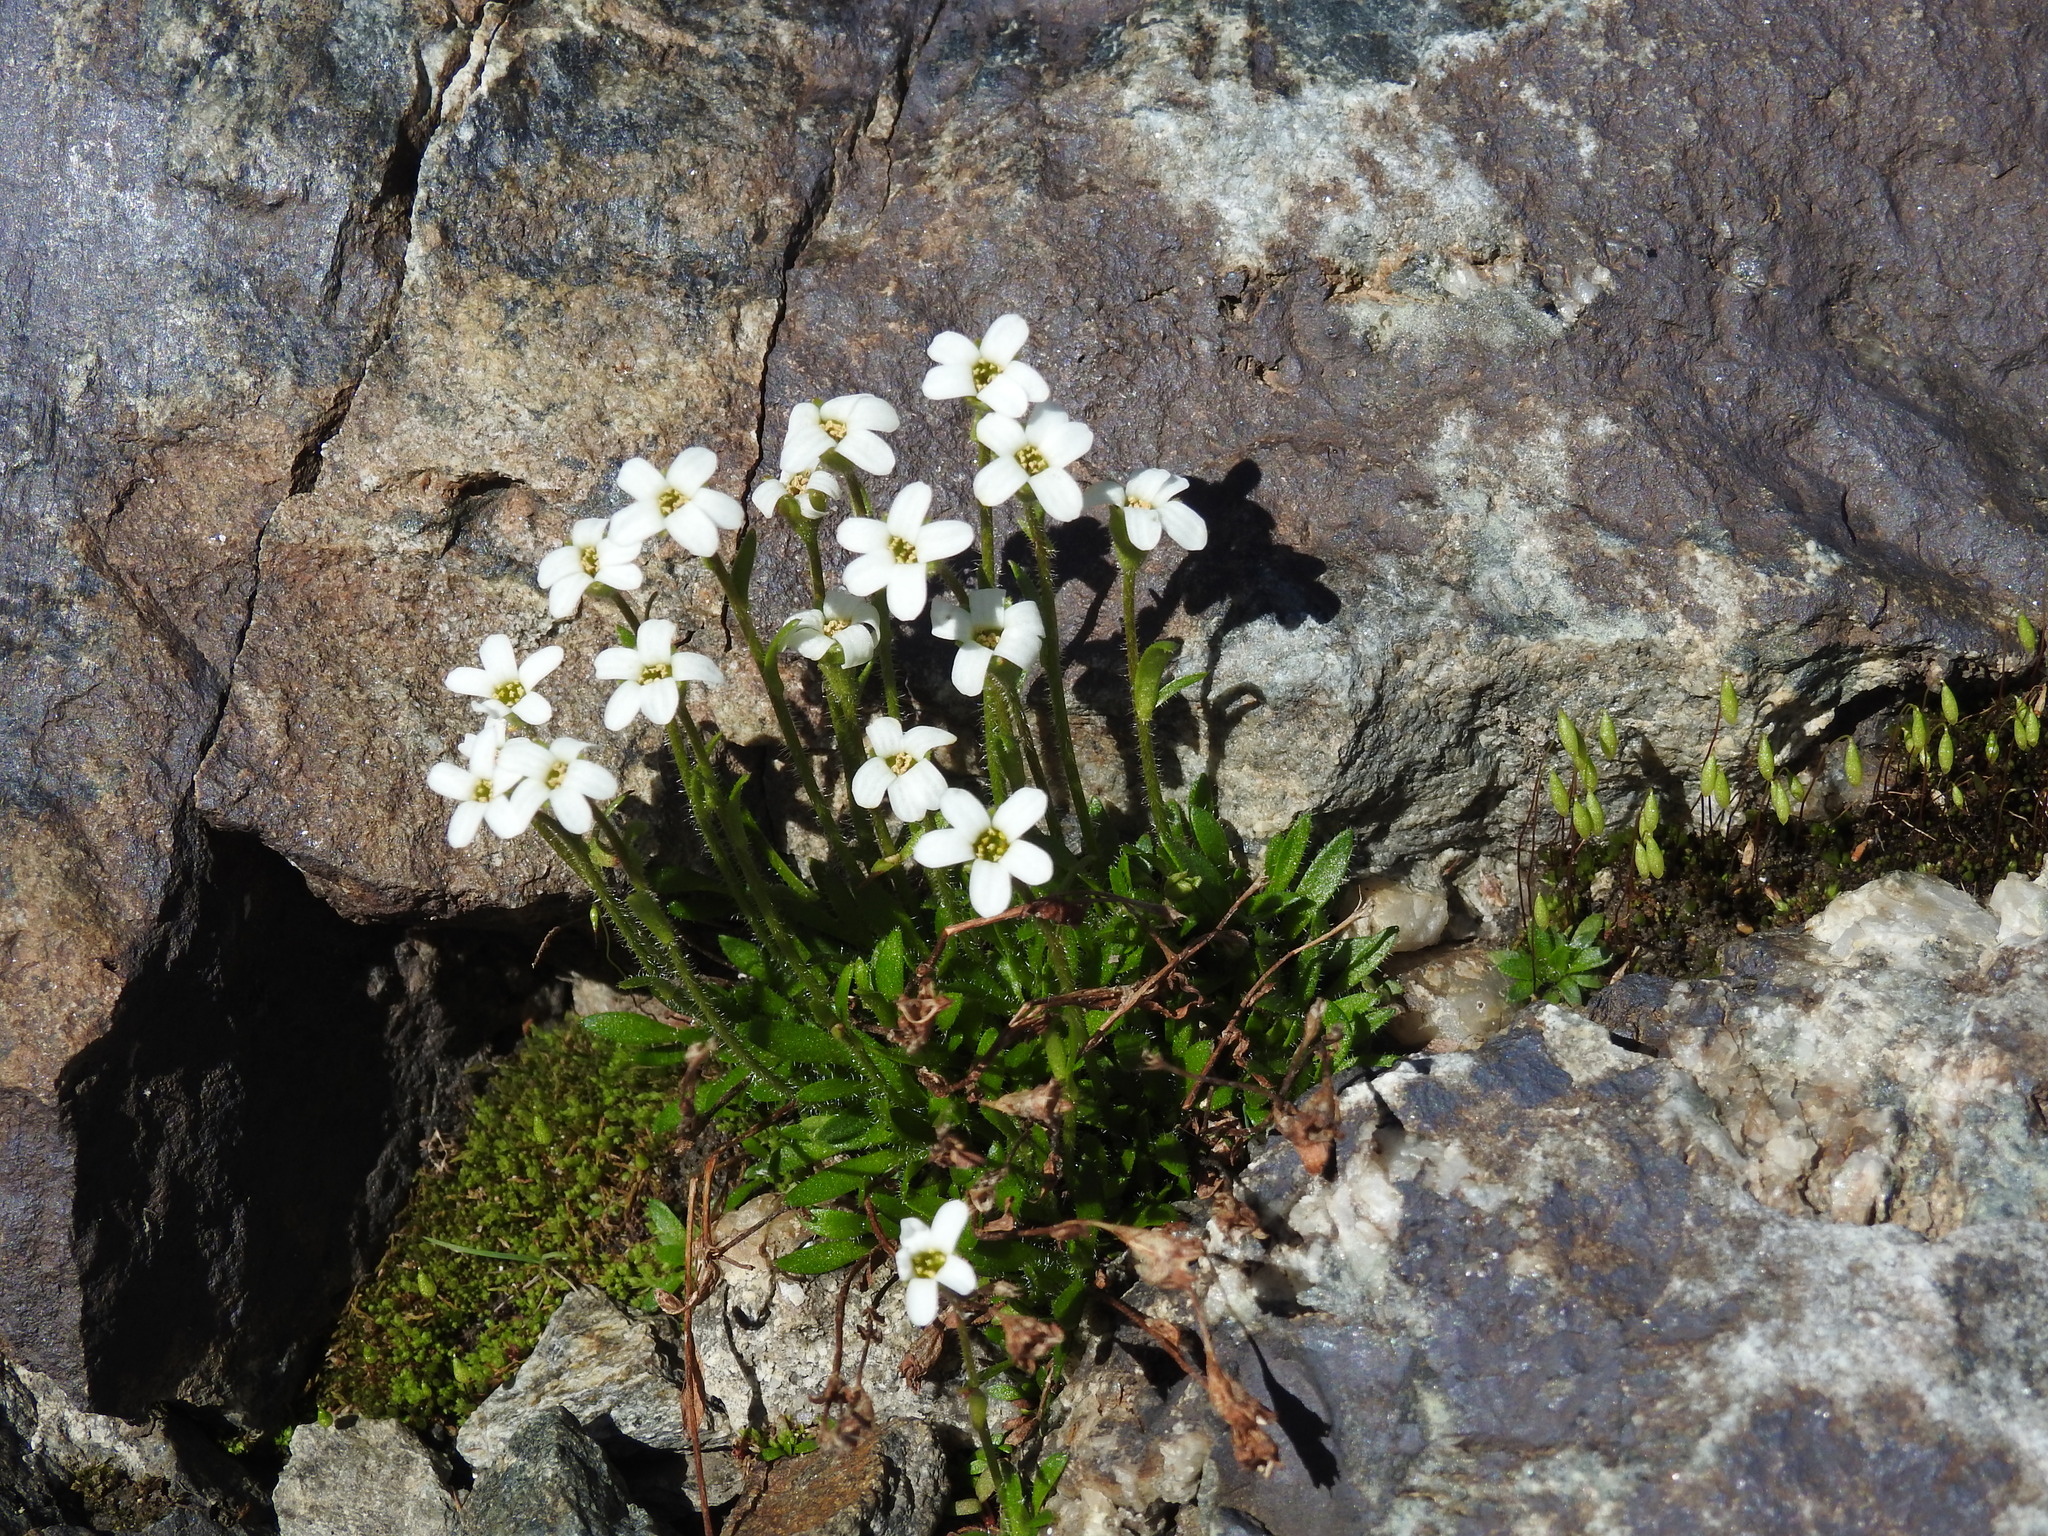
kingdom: Plantae
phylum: Tracheophyta
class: Magnoliopsida
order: Saxifragales
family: Saxifragaceae
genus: Saxifraga
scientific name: Saxifraga androsacea
